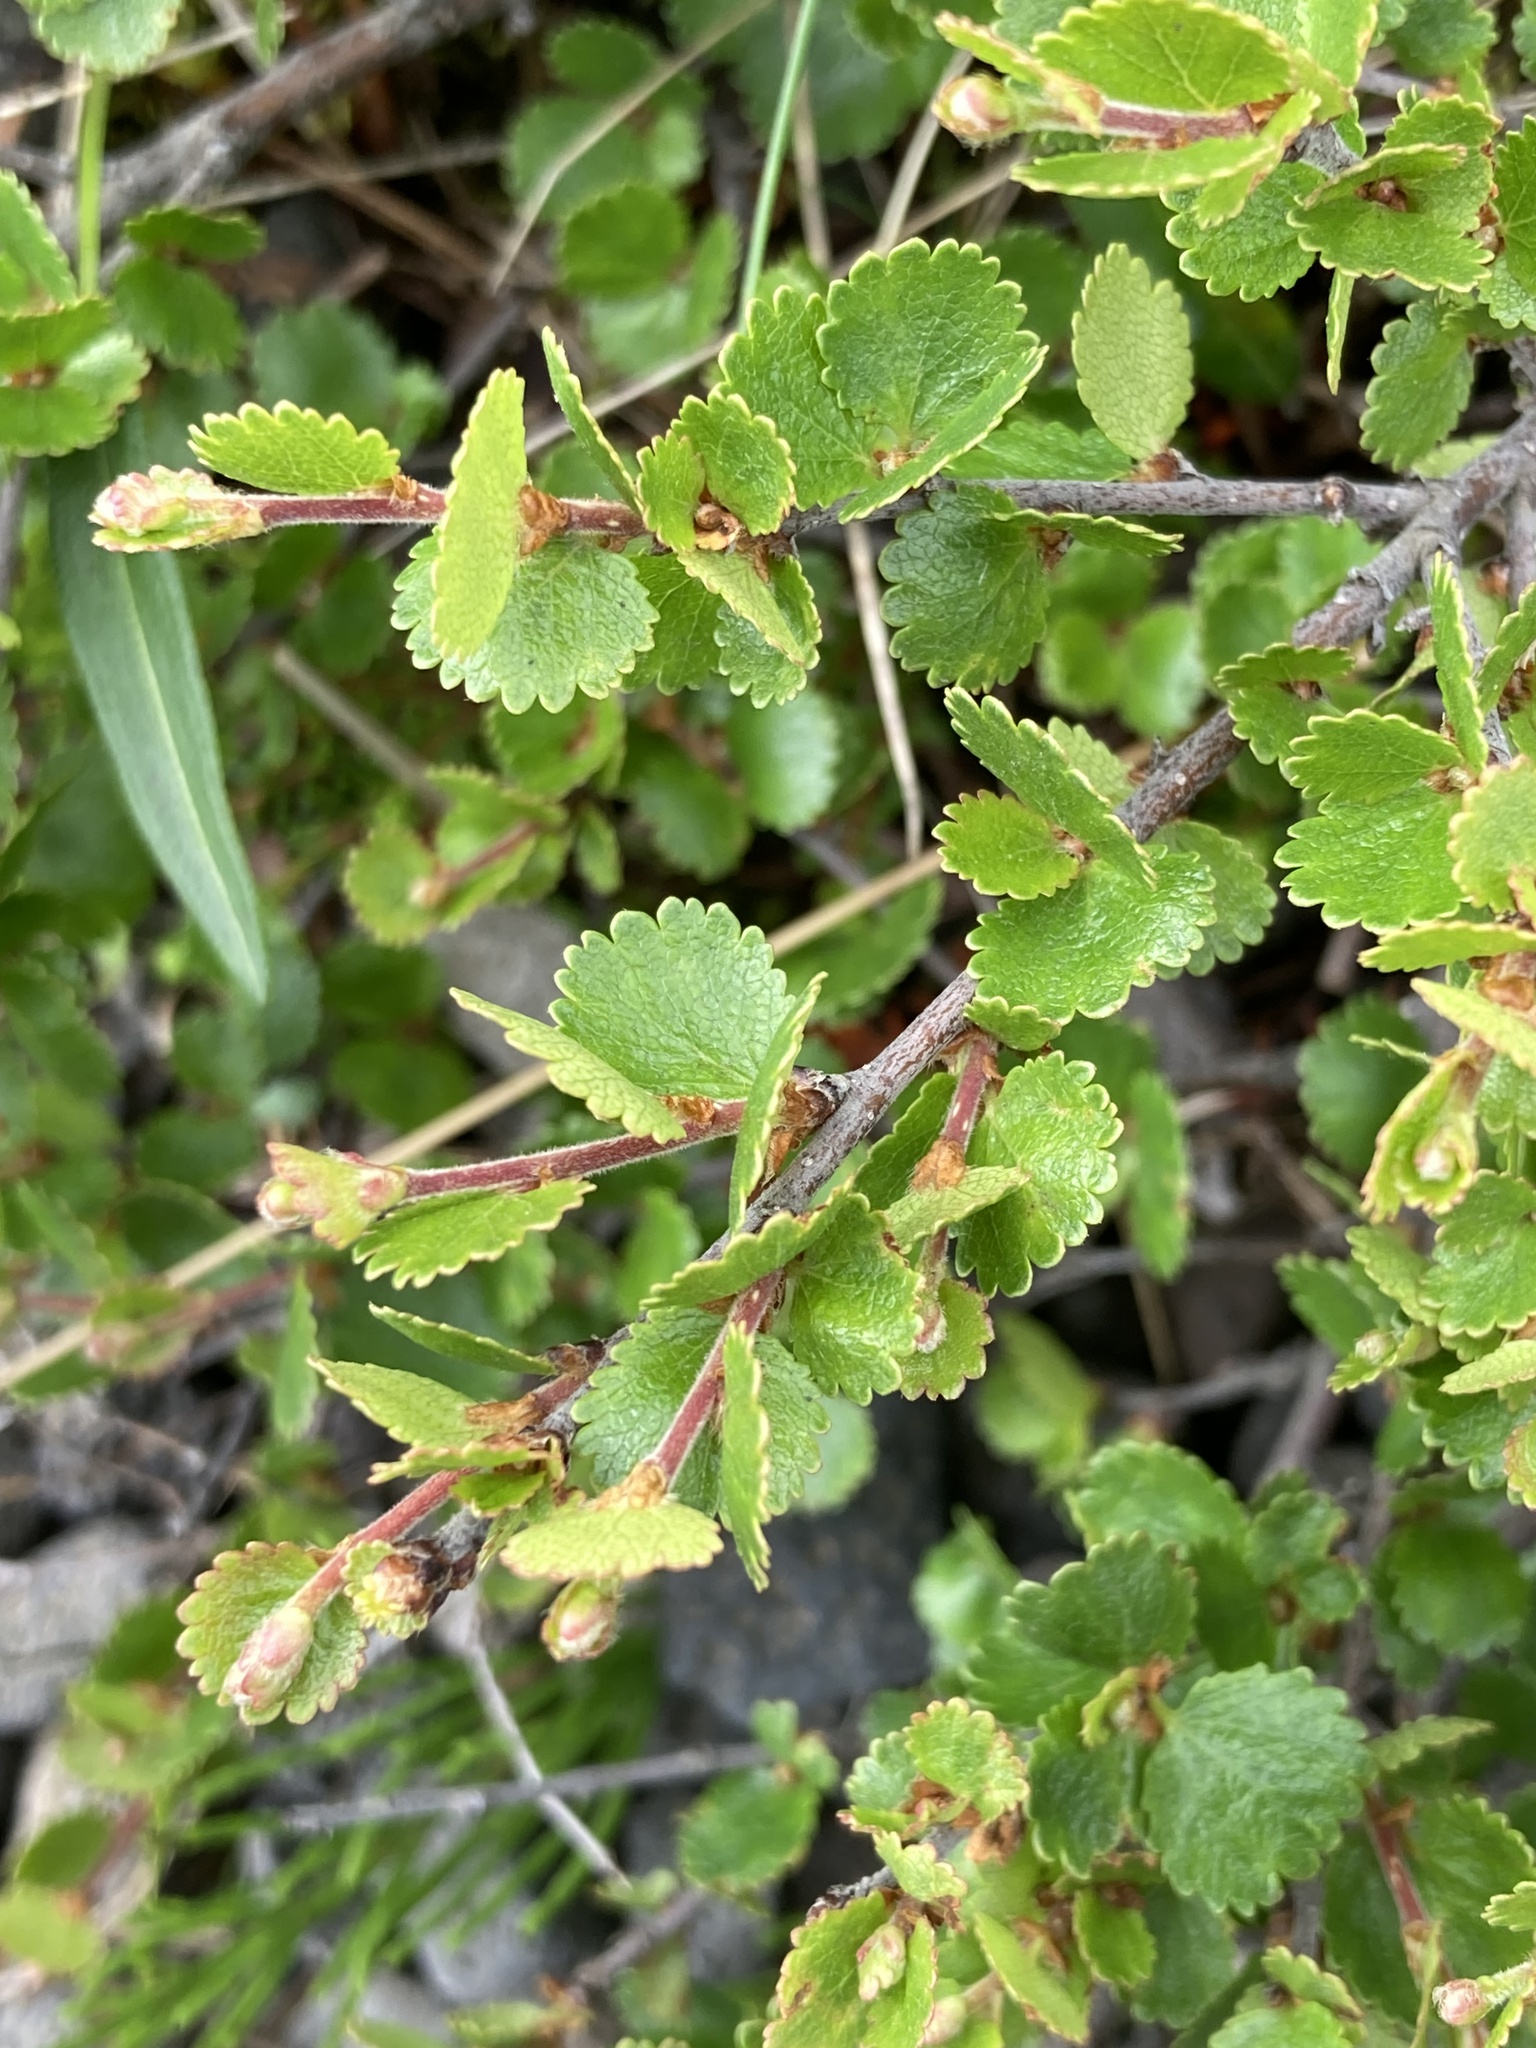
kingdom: Plantae
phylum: Tracheophyta
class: Magnoliopsida
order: Fagales
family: Betulaceae
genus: Betula
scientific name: Betula nana
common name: Arctic dwarf birch
